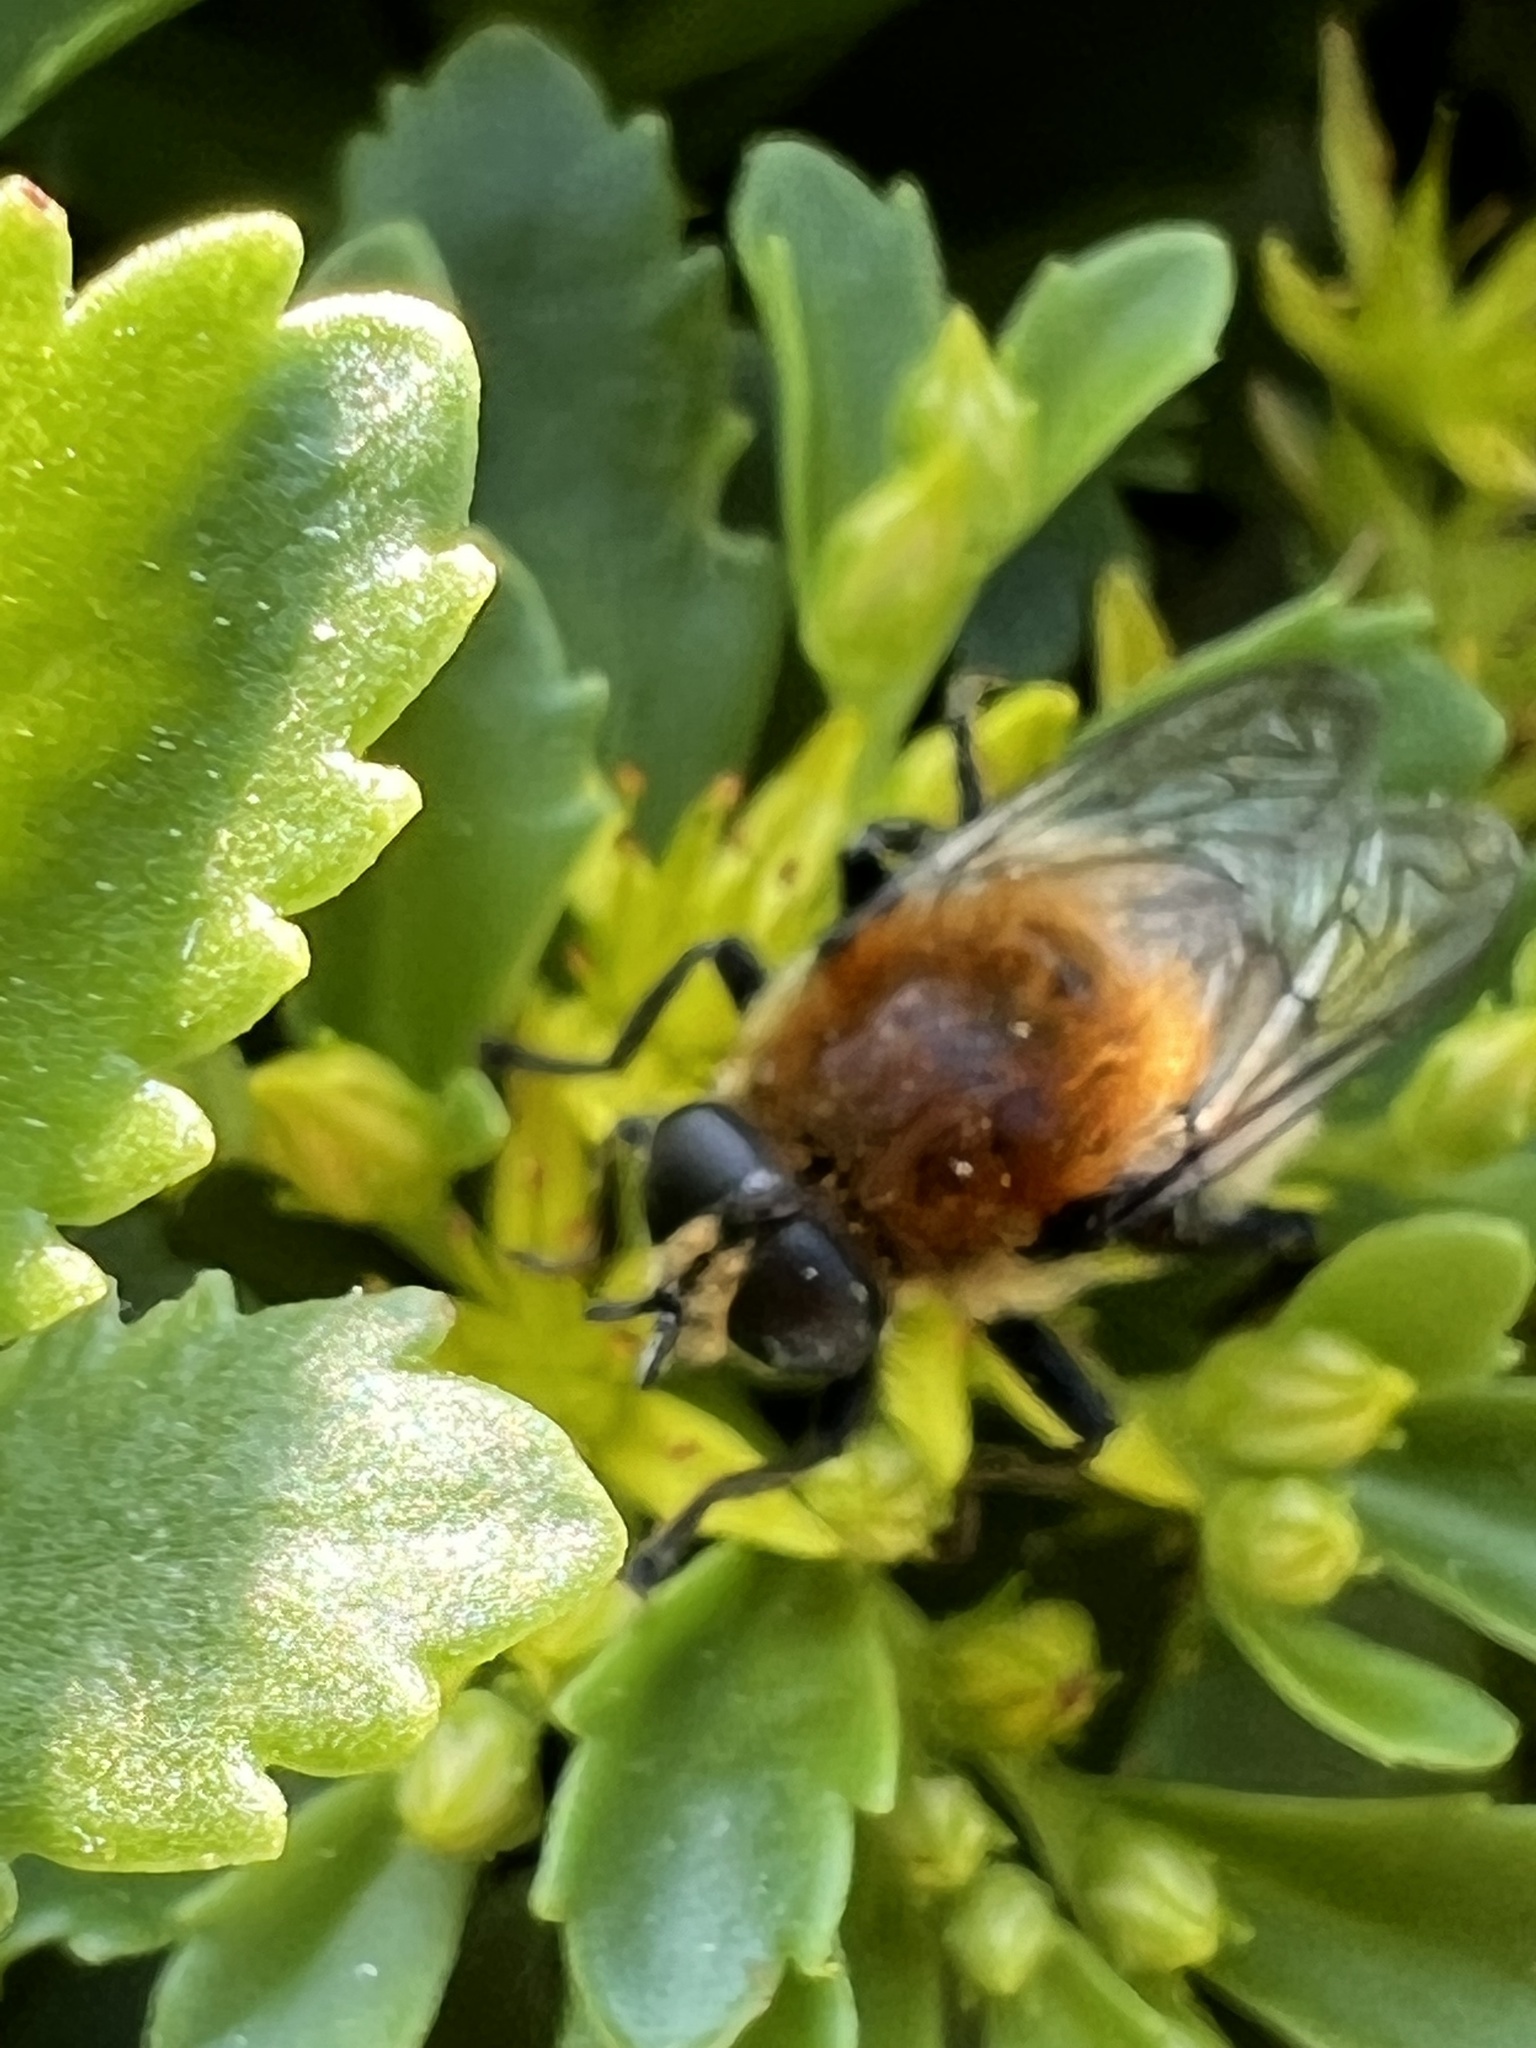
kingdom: Animalia
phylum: Arthropoda
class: Insecta
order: Diptera
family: Syrphidae
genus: Merodon
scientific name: Merodon equestris
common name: Greater bulb-fly
